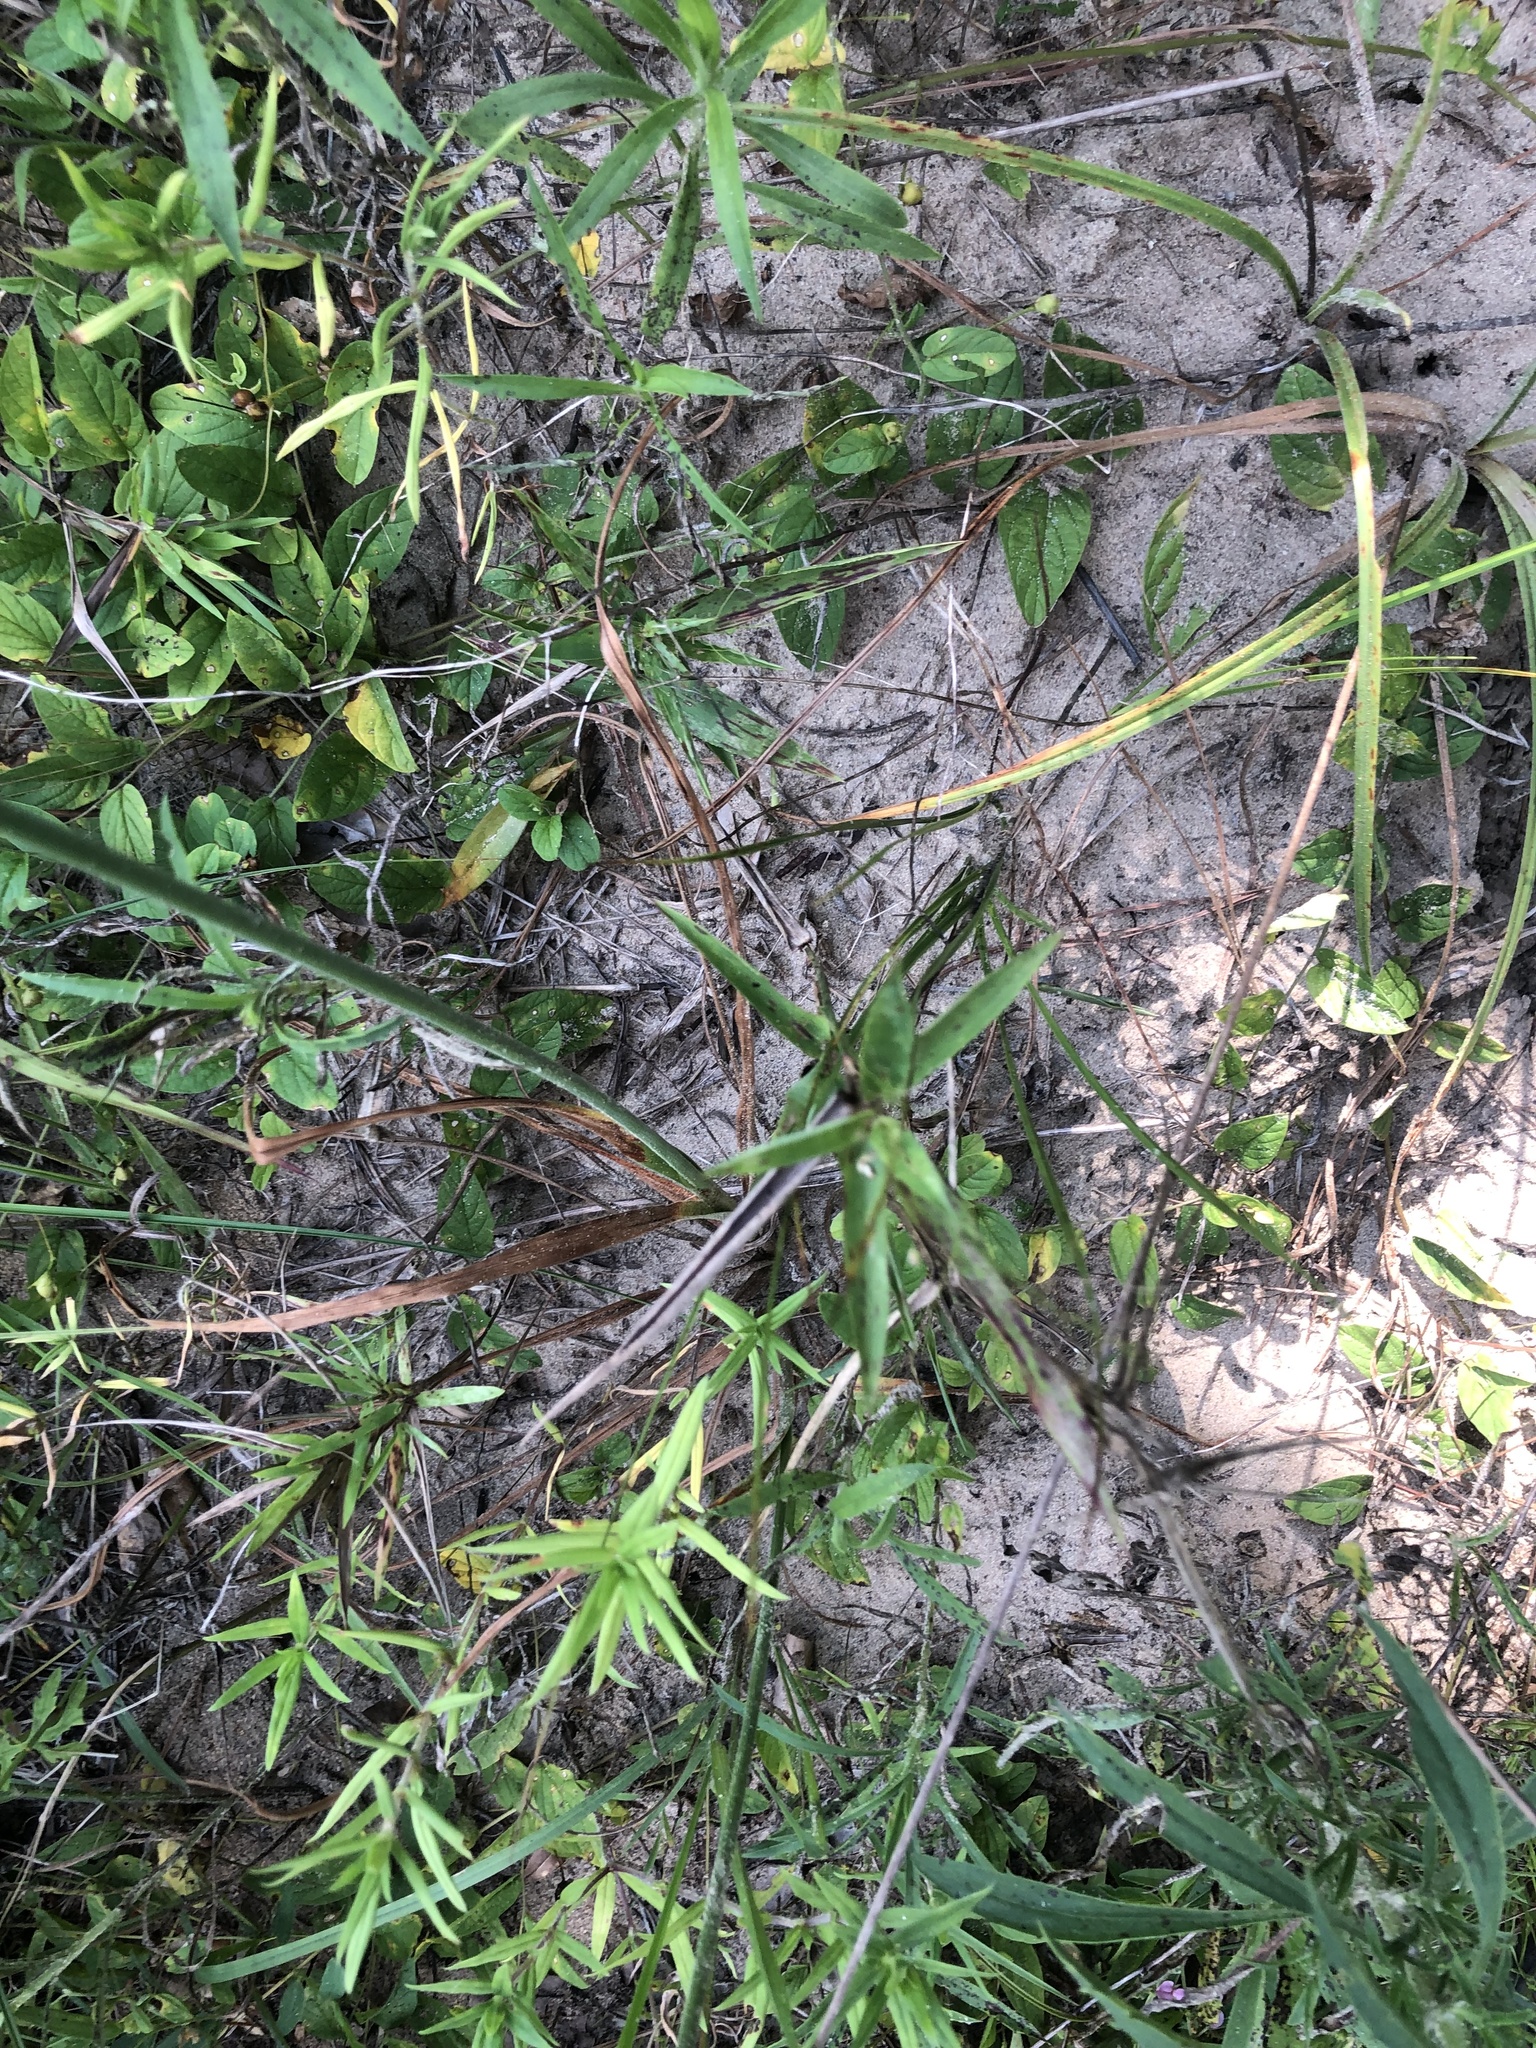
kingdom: Plantae
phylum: Tracheophyta
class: Liliopsida
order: Poales
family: Cyperaceae
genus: Cyperus
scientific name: Cyperus plukenetii
